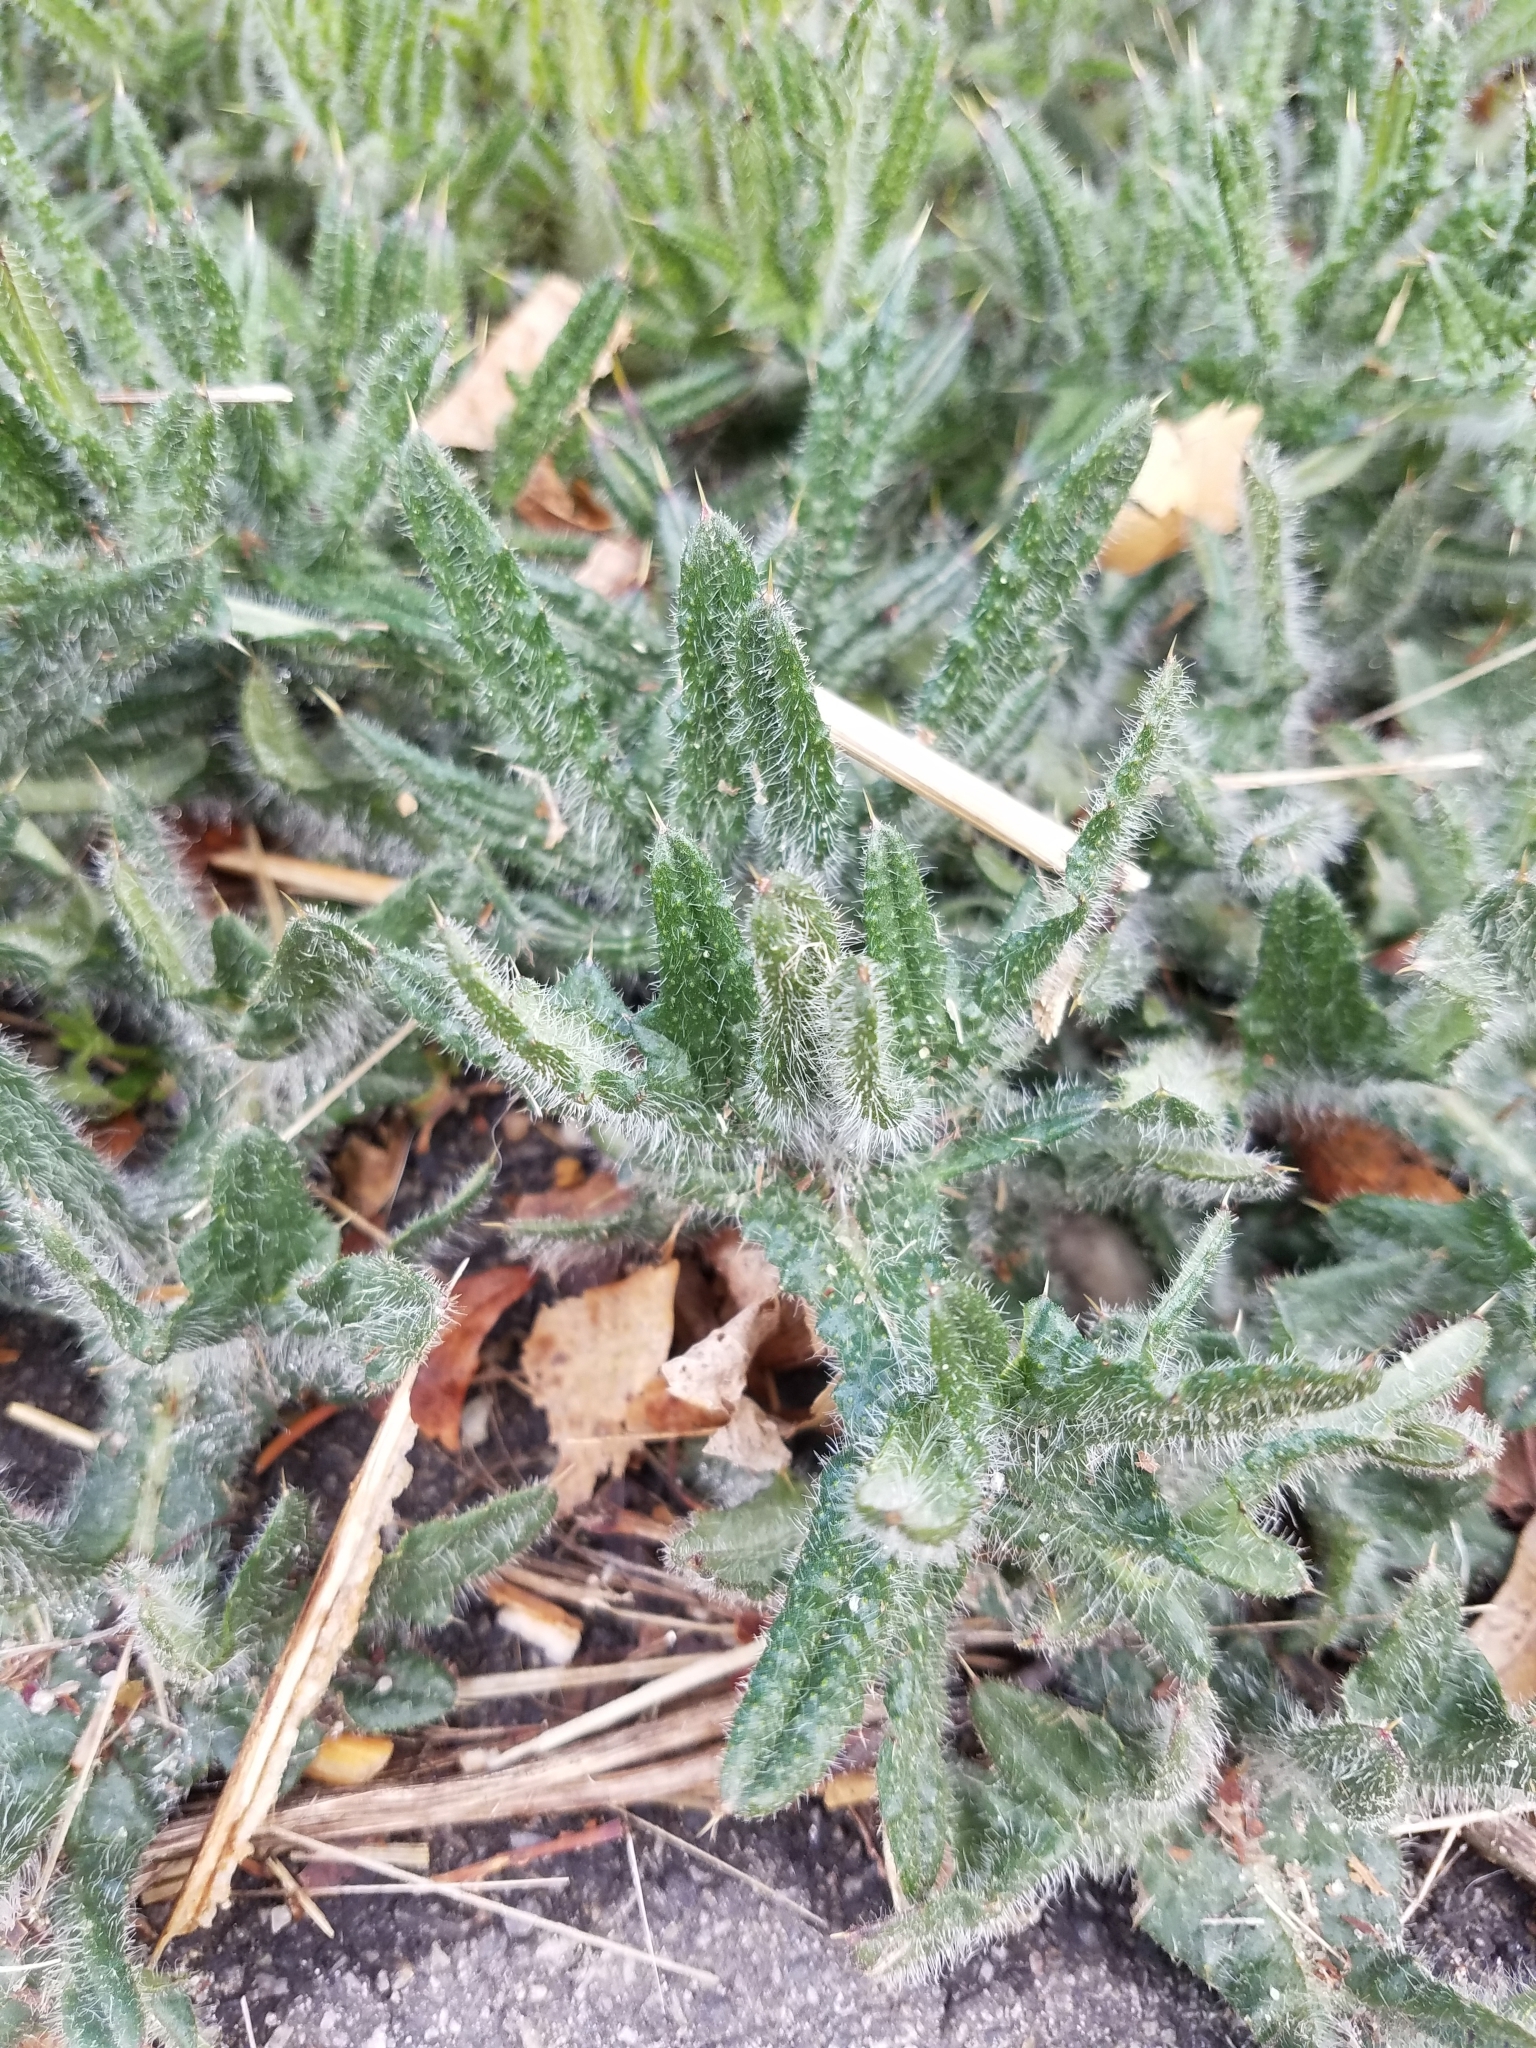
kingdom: Plantae
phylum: Tracheophyta
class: Magnoliopsida
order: Asterales
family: Asteraceae
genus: Cirsium
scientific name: Cirsium vulgare
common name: Bull thistle
